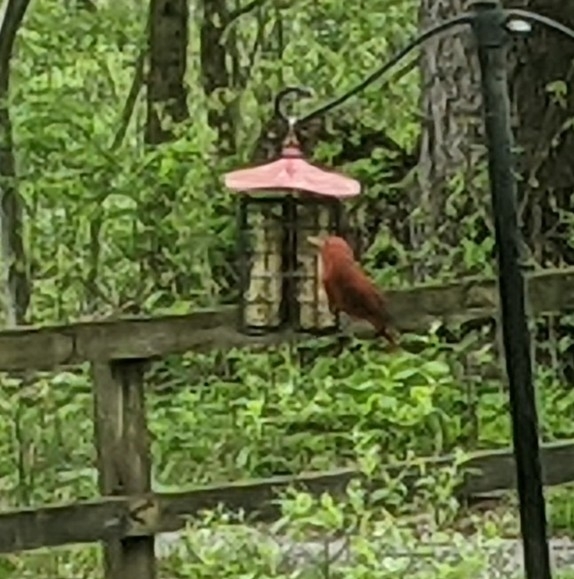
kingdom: Animalia
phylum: Chordata
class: Aves
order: Passeriformes
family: Cardinalidae
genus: Piranga
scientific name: Piranga rubra
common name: Summer tanager
